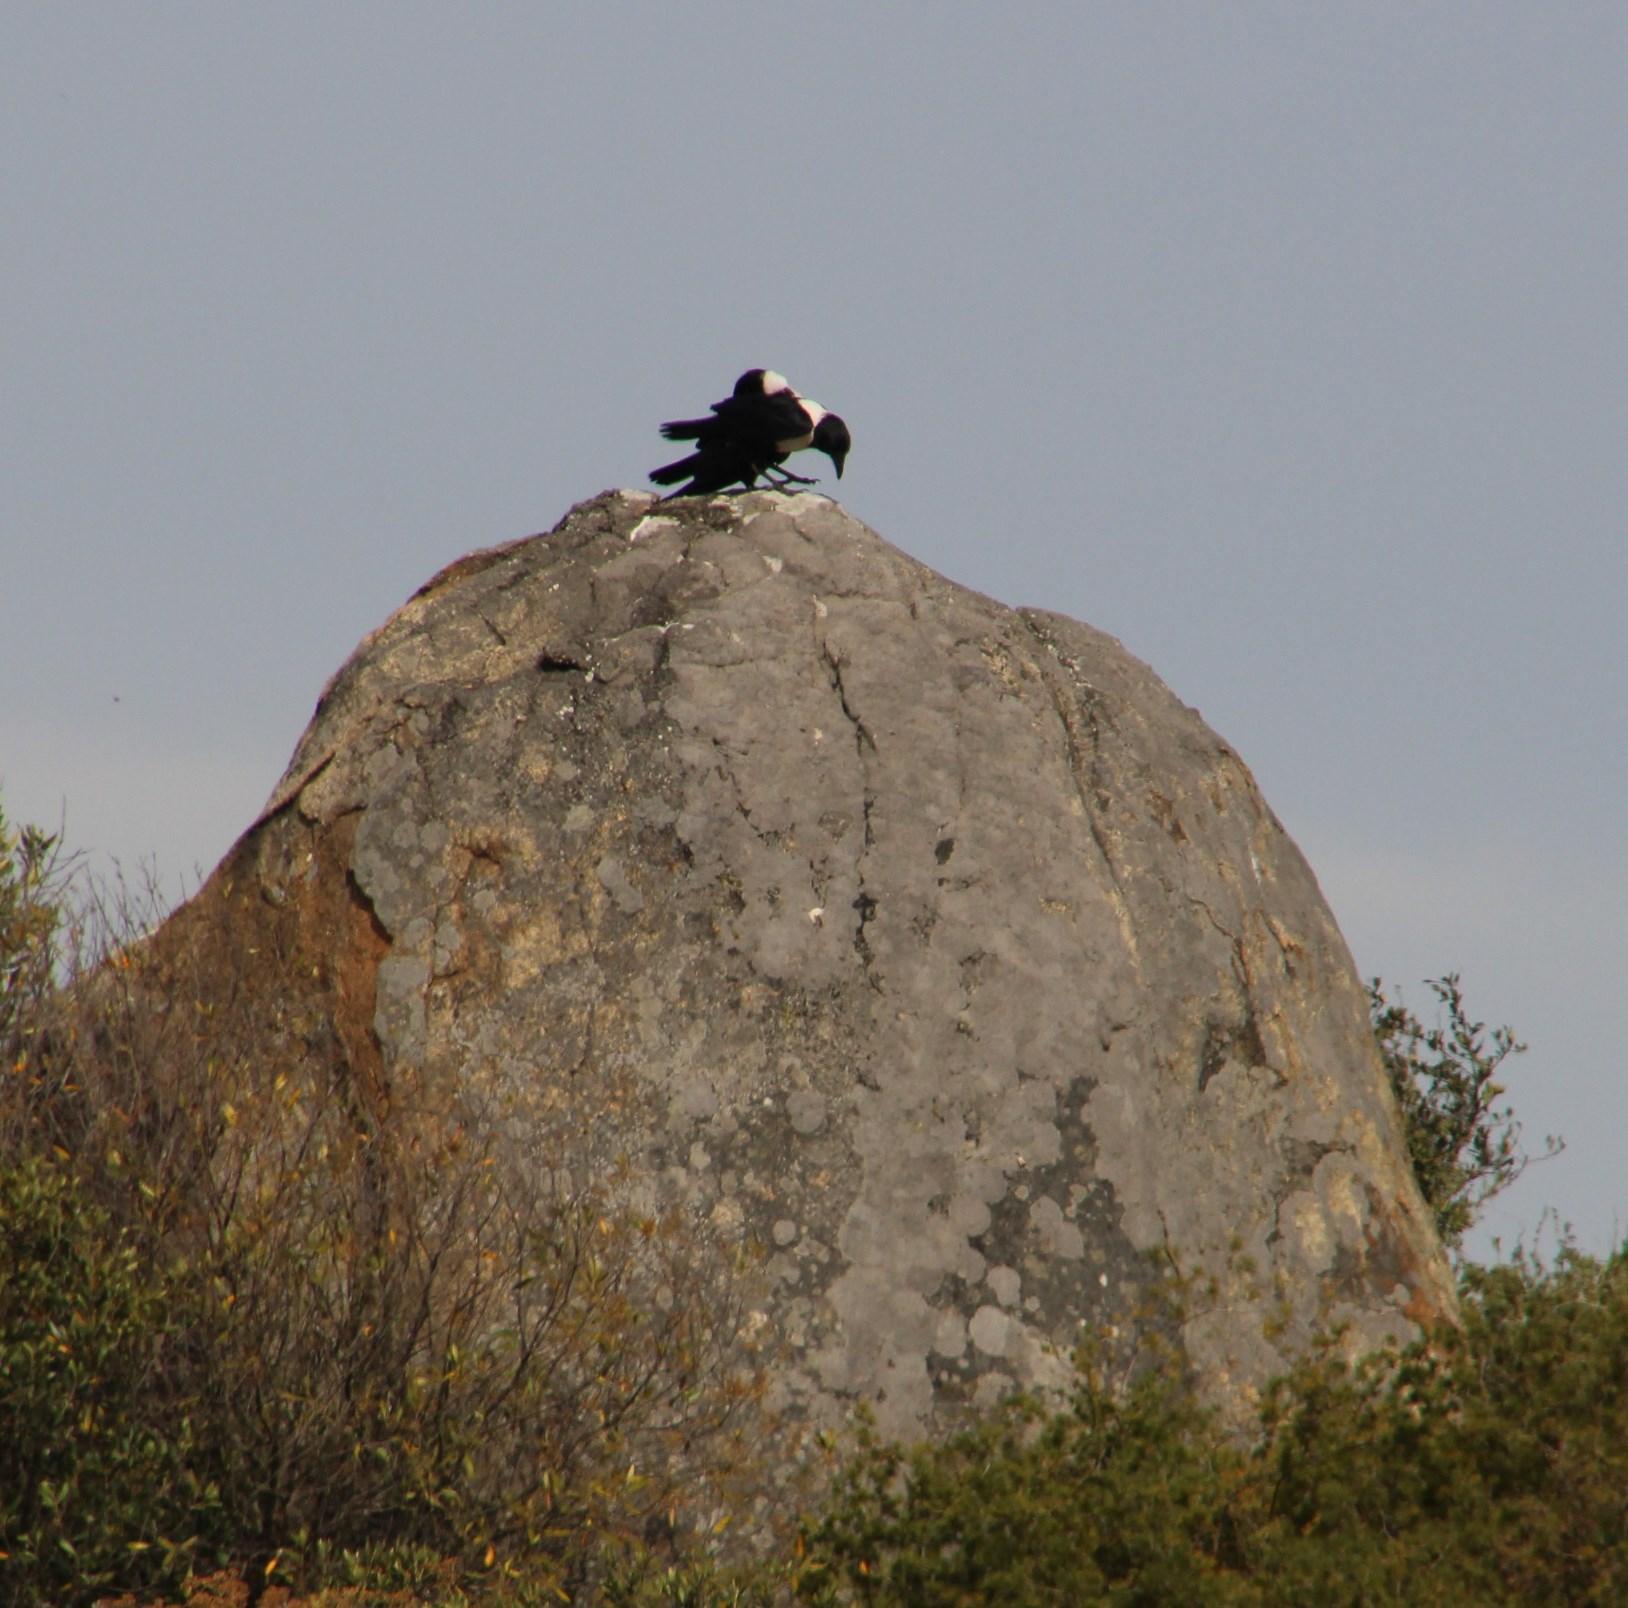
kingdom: Animalia
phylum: Chordata
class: Aves
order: Passeriformes
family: Corvidae
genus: Corvus
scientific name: Corvus albus
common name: Pied crow
